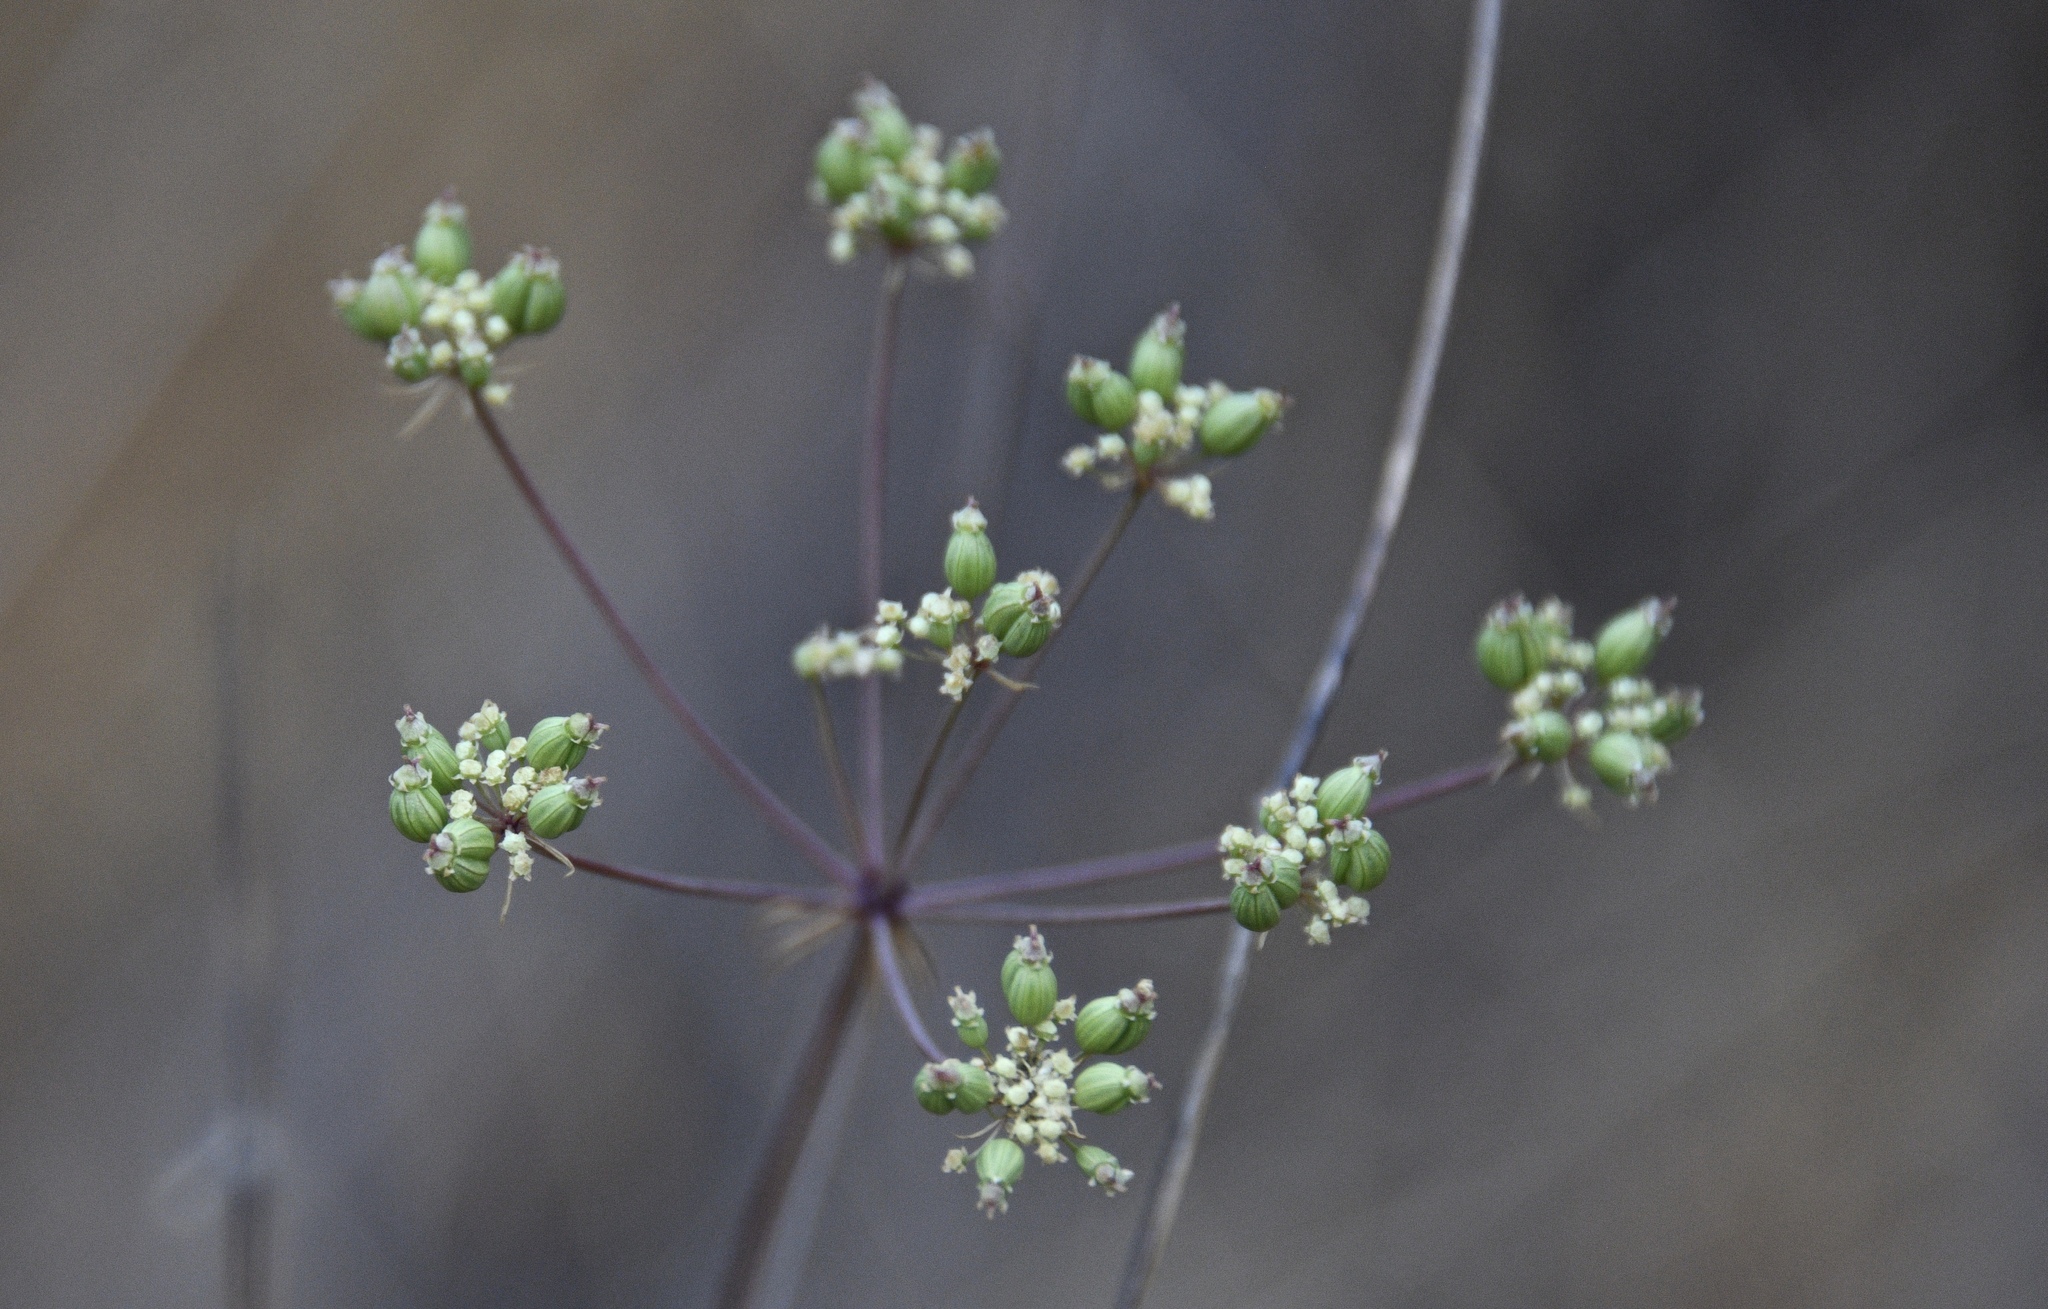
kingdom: Plantae
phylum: Tracheophyta
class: Magnoliopsida
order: Apiales
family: Apiaceae
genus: Perideridia
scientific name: Perideridia kelloggii
